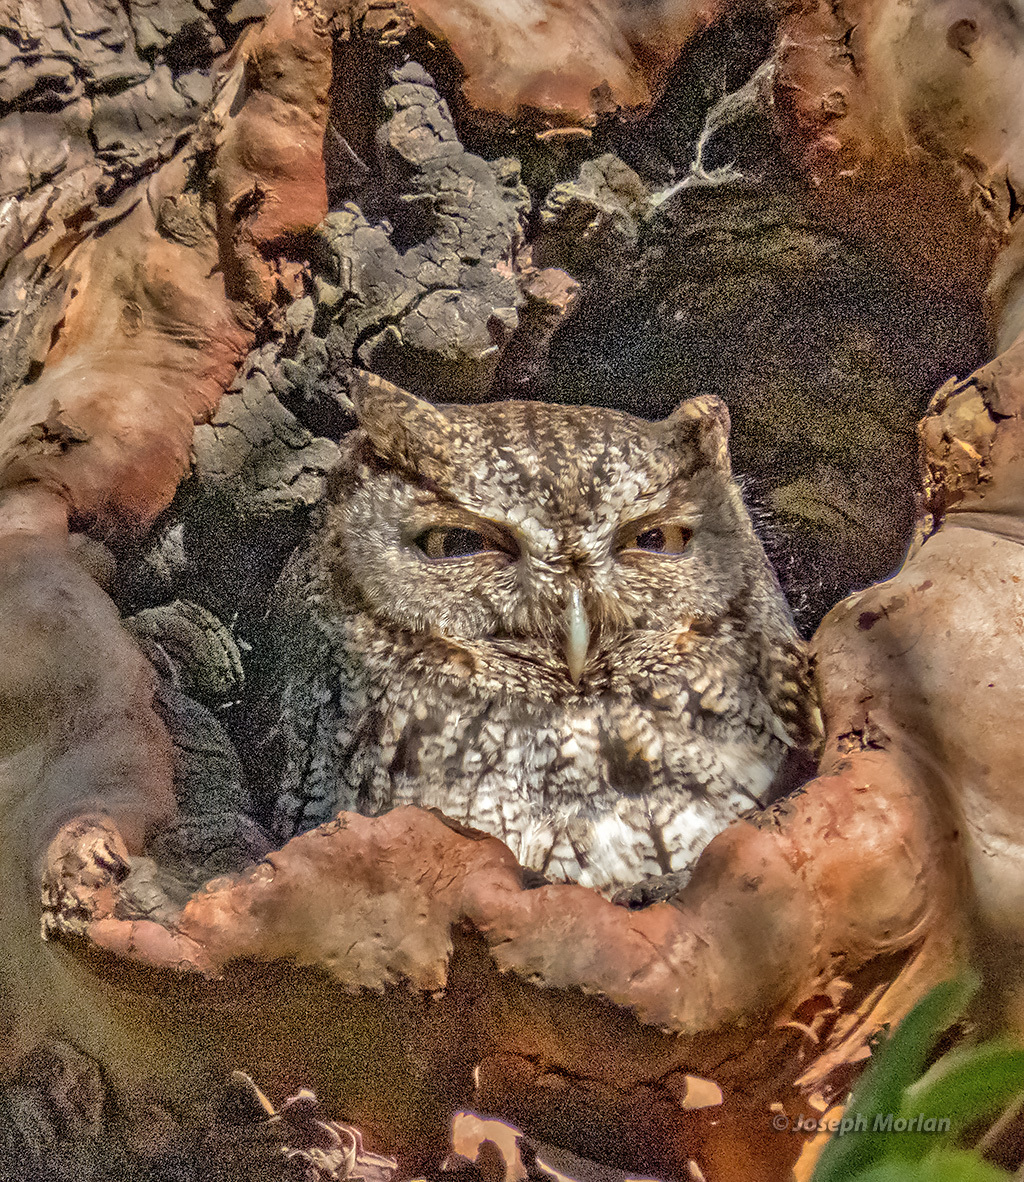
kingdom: Animalia
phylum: Chordata
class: Aves
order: Strigiformes
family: Strigidae
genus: Megascops
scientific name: Megascops kennicottii
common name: Western screech-owl
